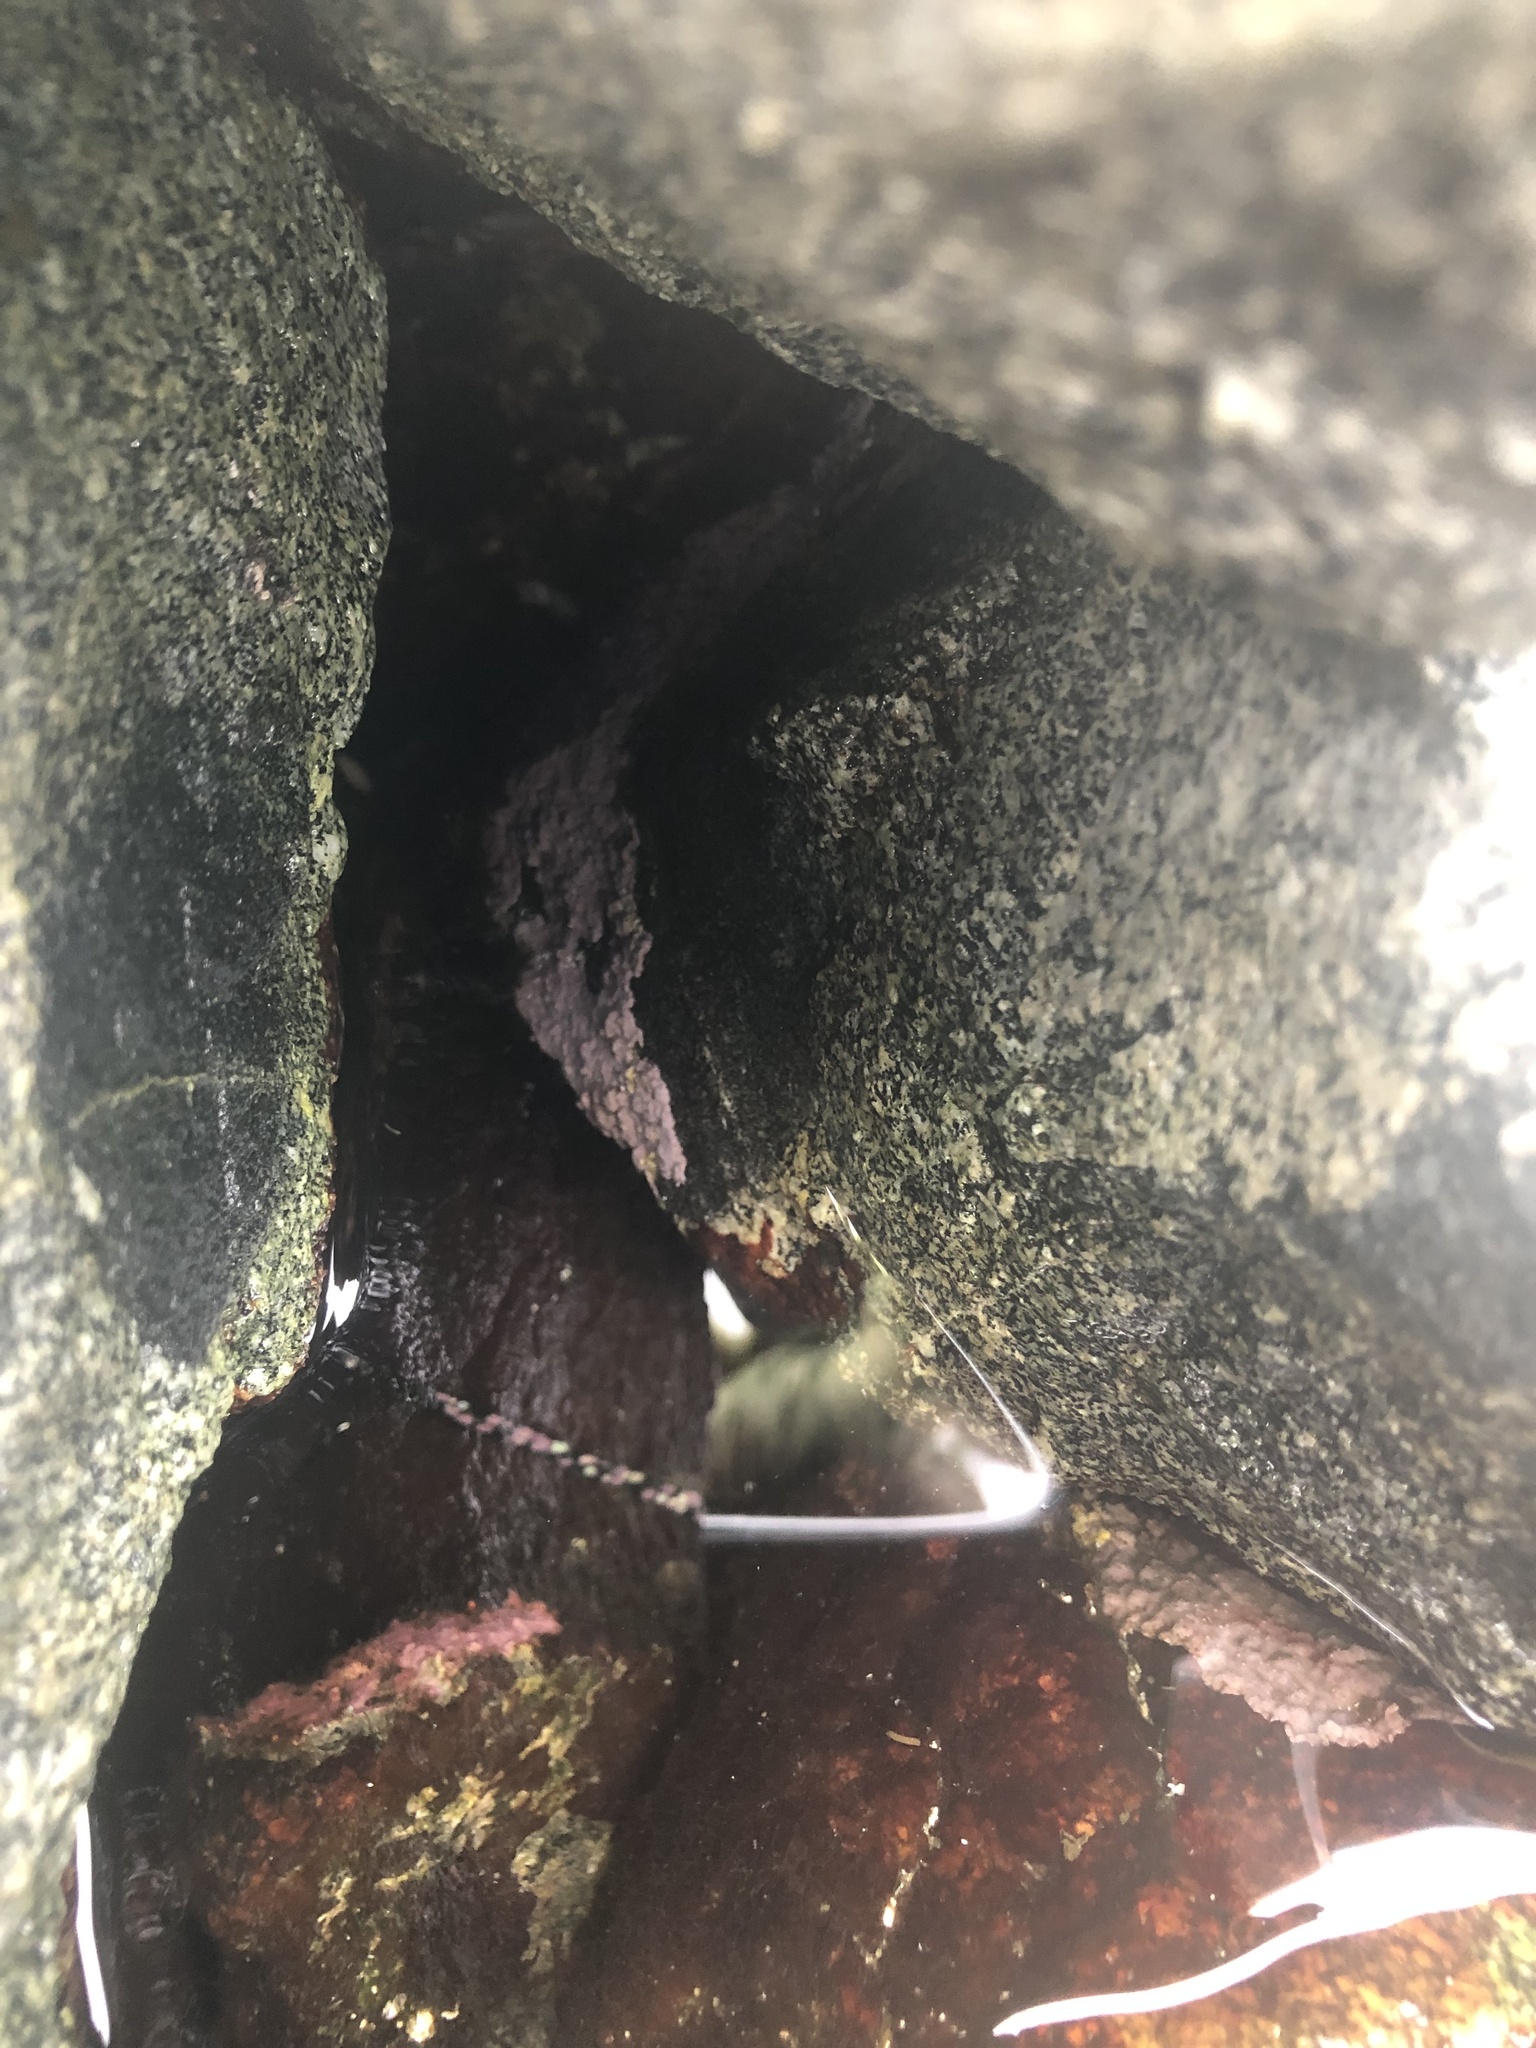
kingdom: Plantae
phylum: Rhodophyta
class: Florideophyceae
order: Corallinales
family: Corallinaceae
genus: Chamberlainium
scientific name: Chamberlainium tumidum
